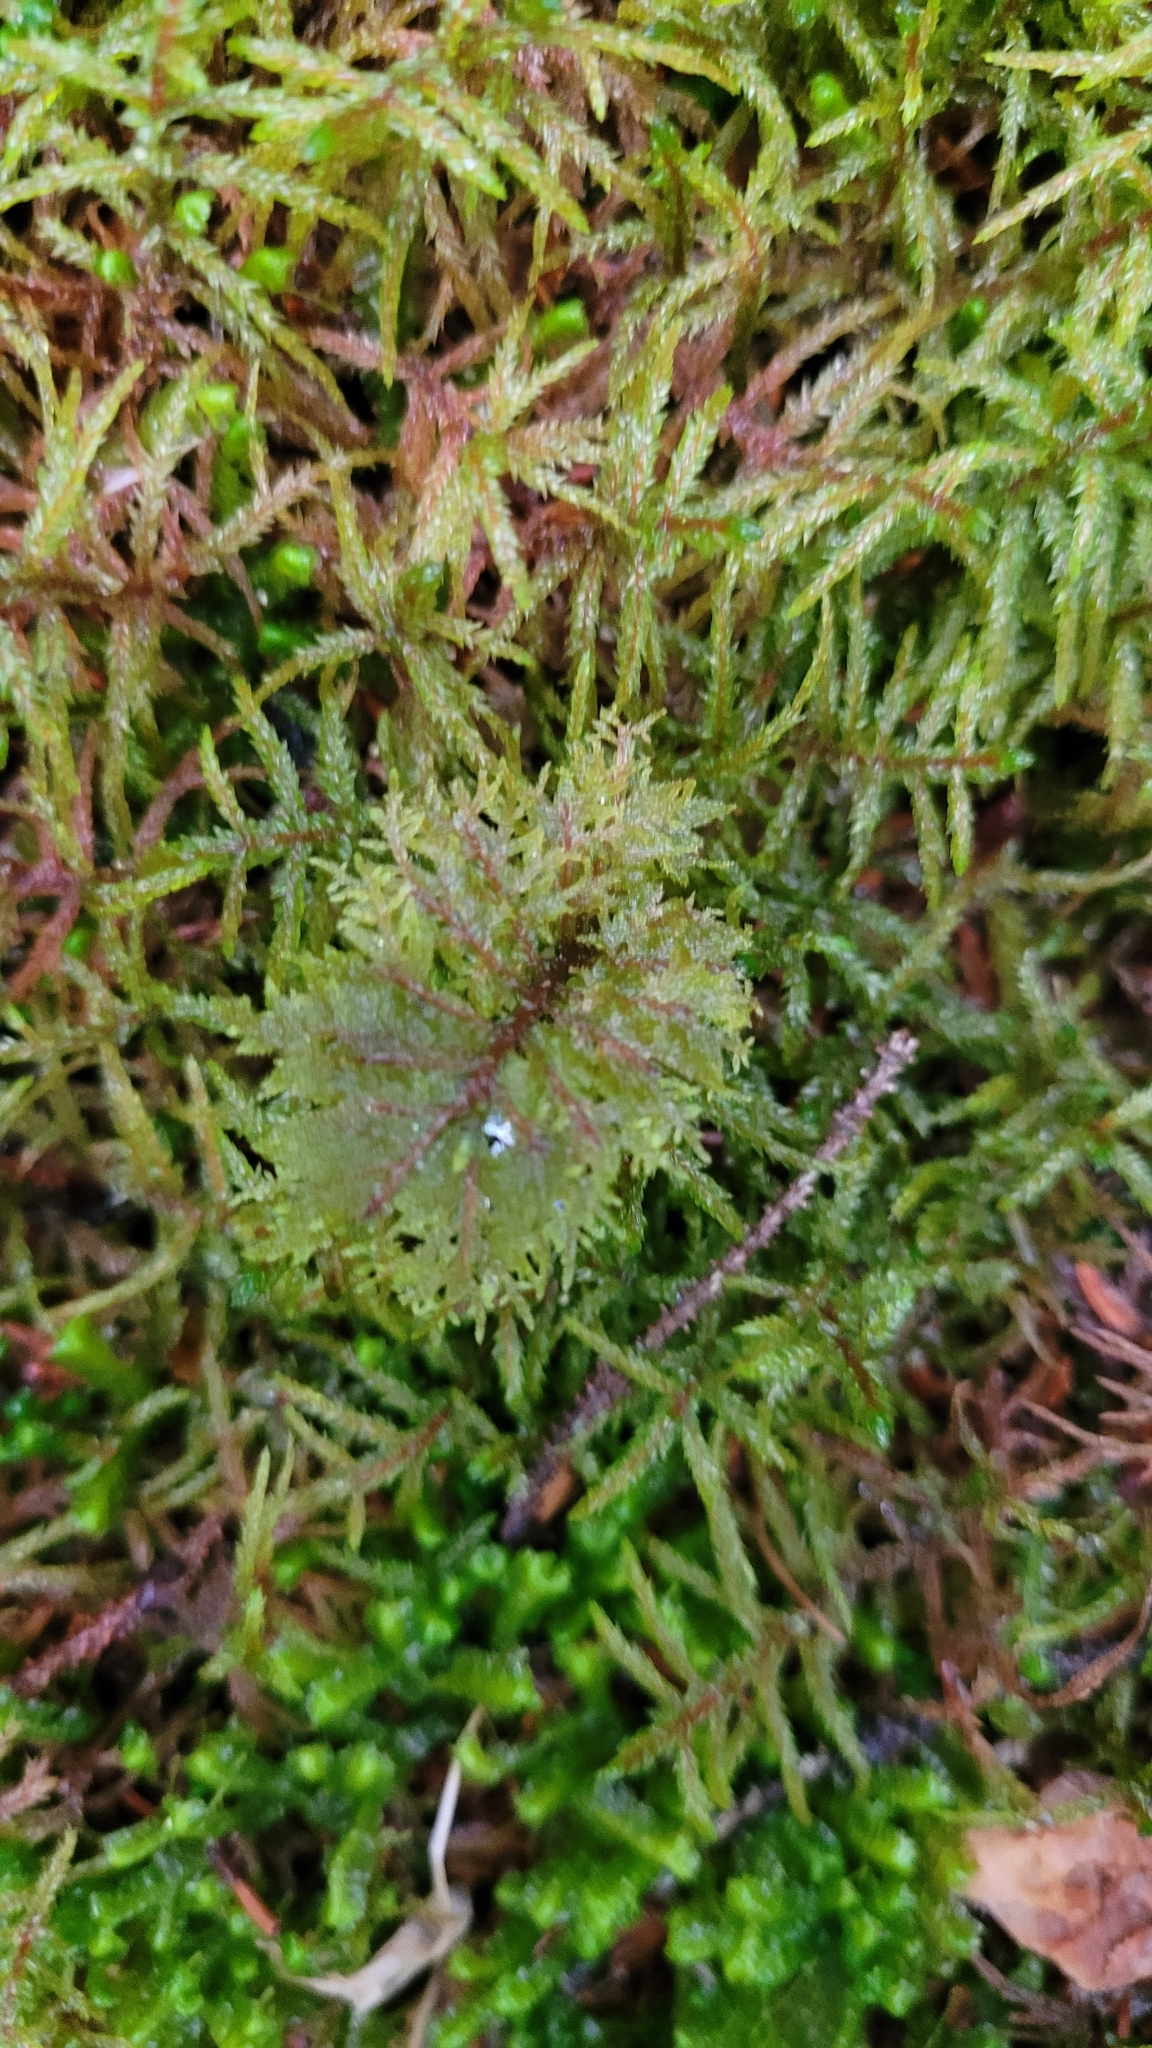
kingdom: Plantae
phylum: Bryophyta
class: Bryopsida
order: Hypnales
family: Hylocomiaceae
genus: Hylocomium
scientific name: Hylocomium splendens
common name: Stairstep moss
